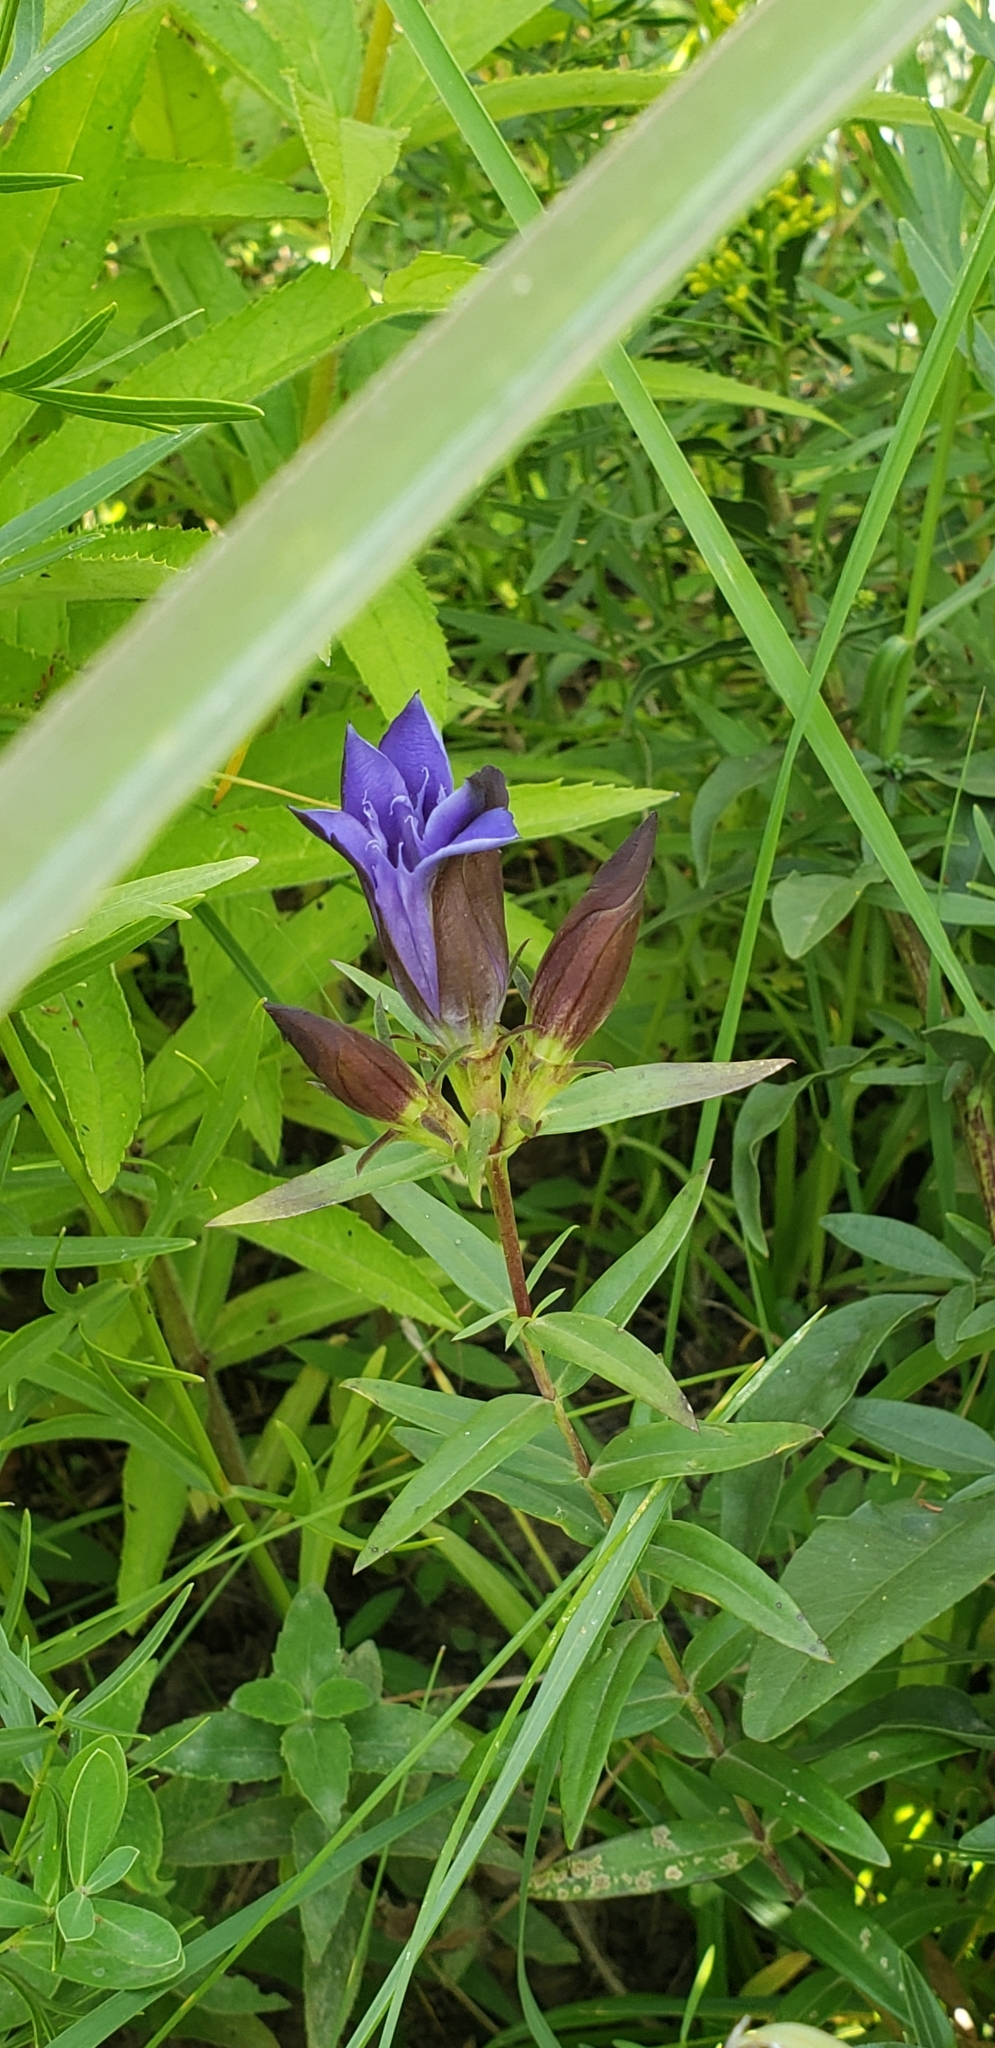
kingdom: Plantae
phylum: Tracheophyta
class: Magnoliopsida
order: Gentianales
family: Gentianaceae
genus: Gentiana
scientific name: Gentiana puberulenta
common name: Downy gentian
